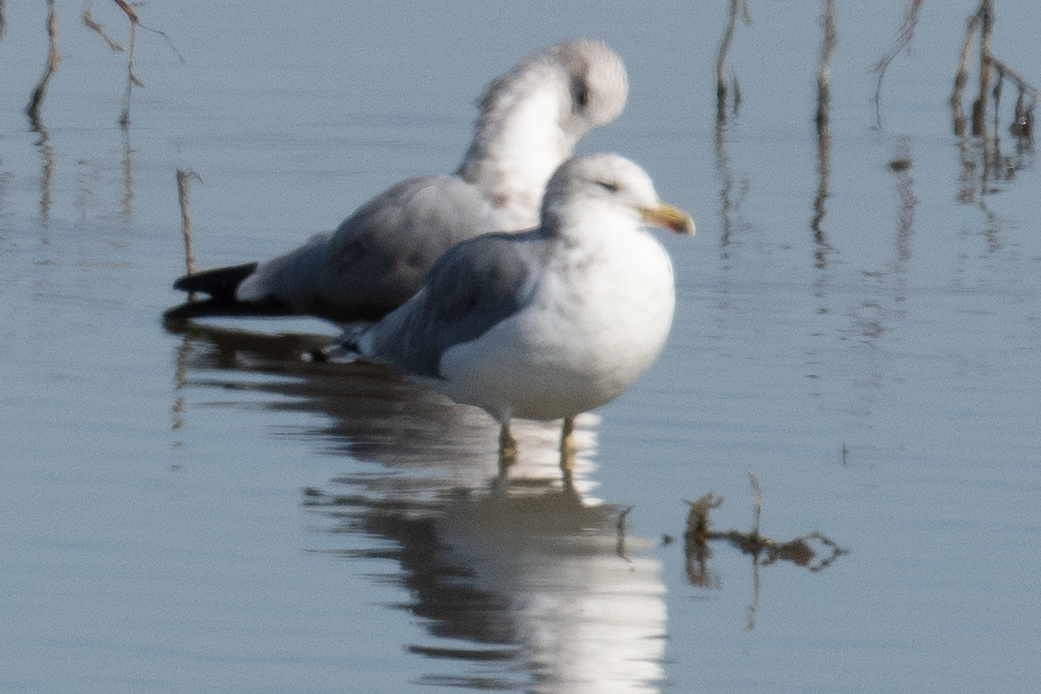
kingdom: Animalia
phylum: Chordata
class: Aves
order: Charadriiformes
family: Laridae
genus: Larus
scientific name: Larus californicus
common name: California gull
